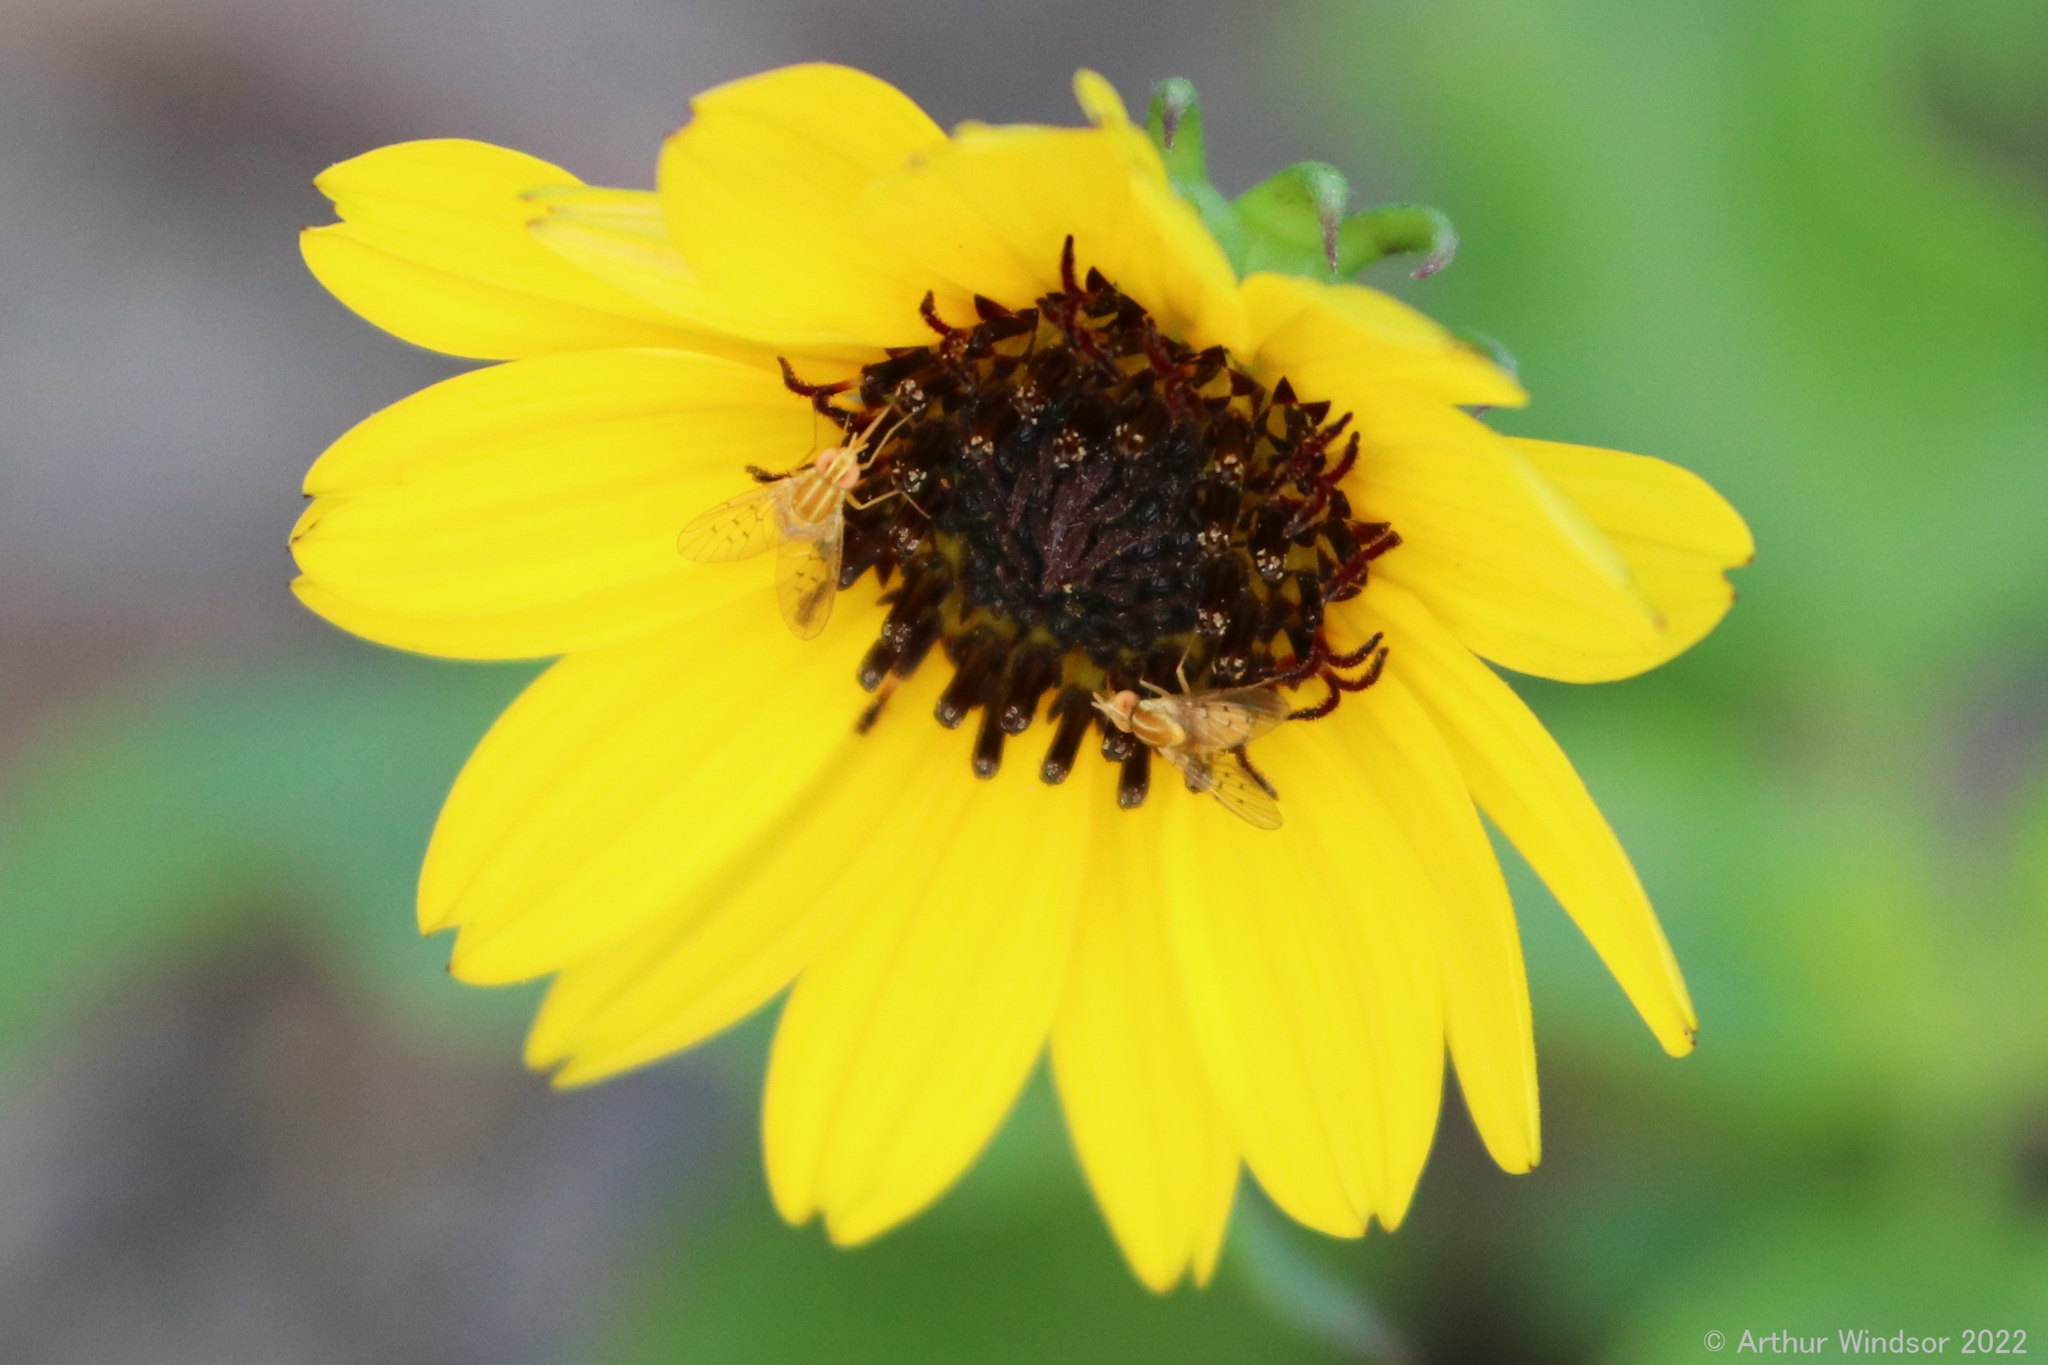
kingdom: Animalia
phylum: Arthropoda
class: Insecta
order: Diptera
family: Bombyliidae
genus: Poecilognathus
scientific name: Poecilognathus sulphureus
